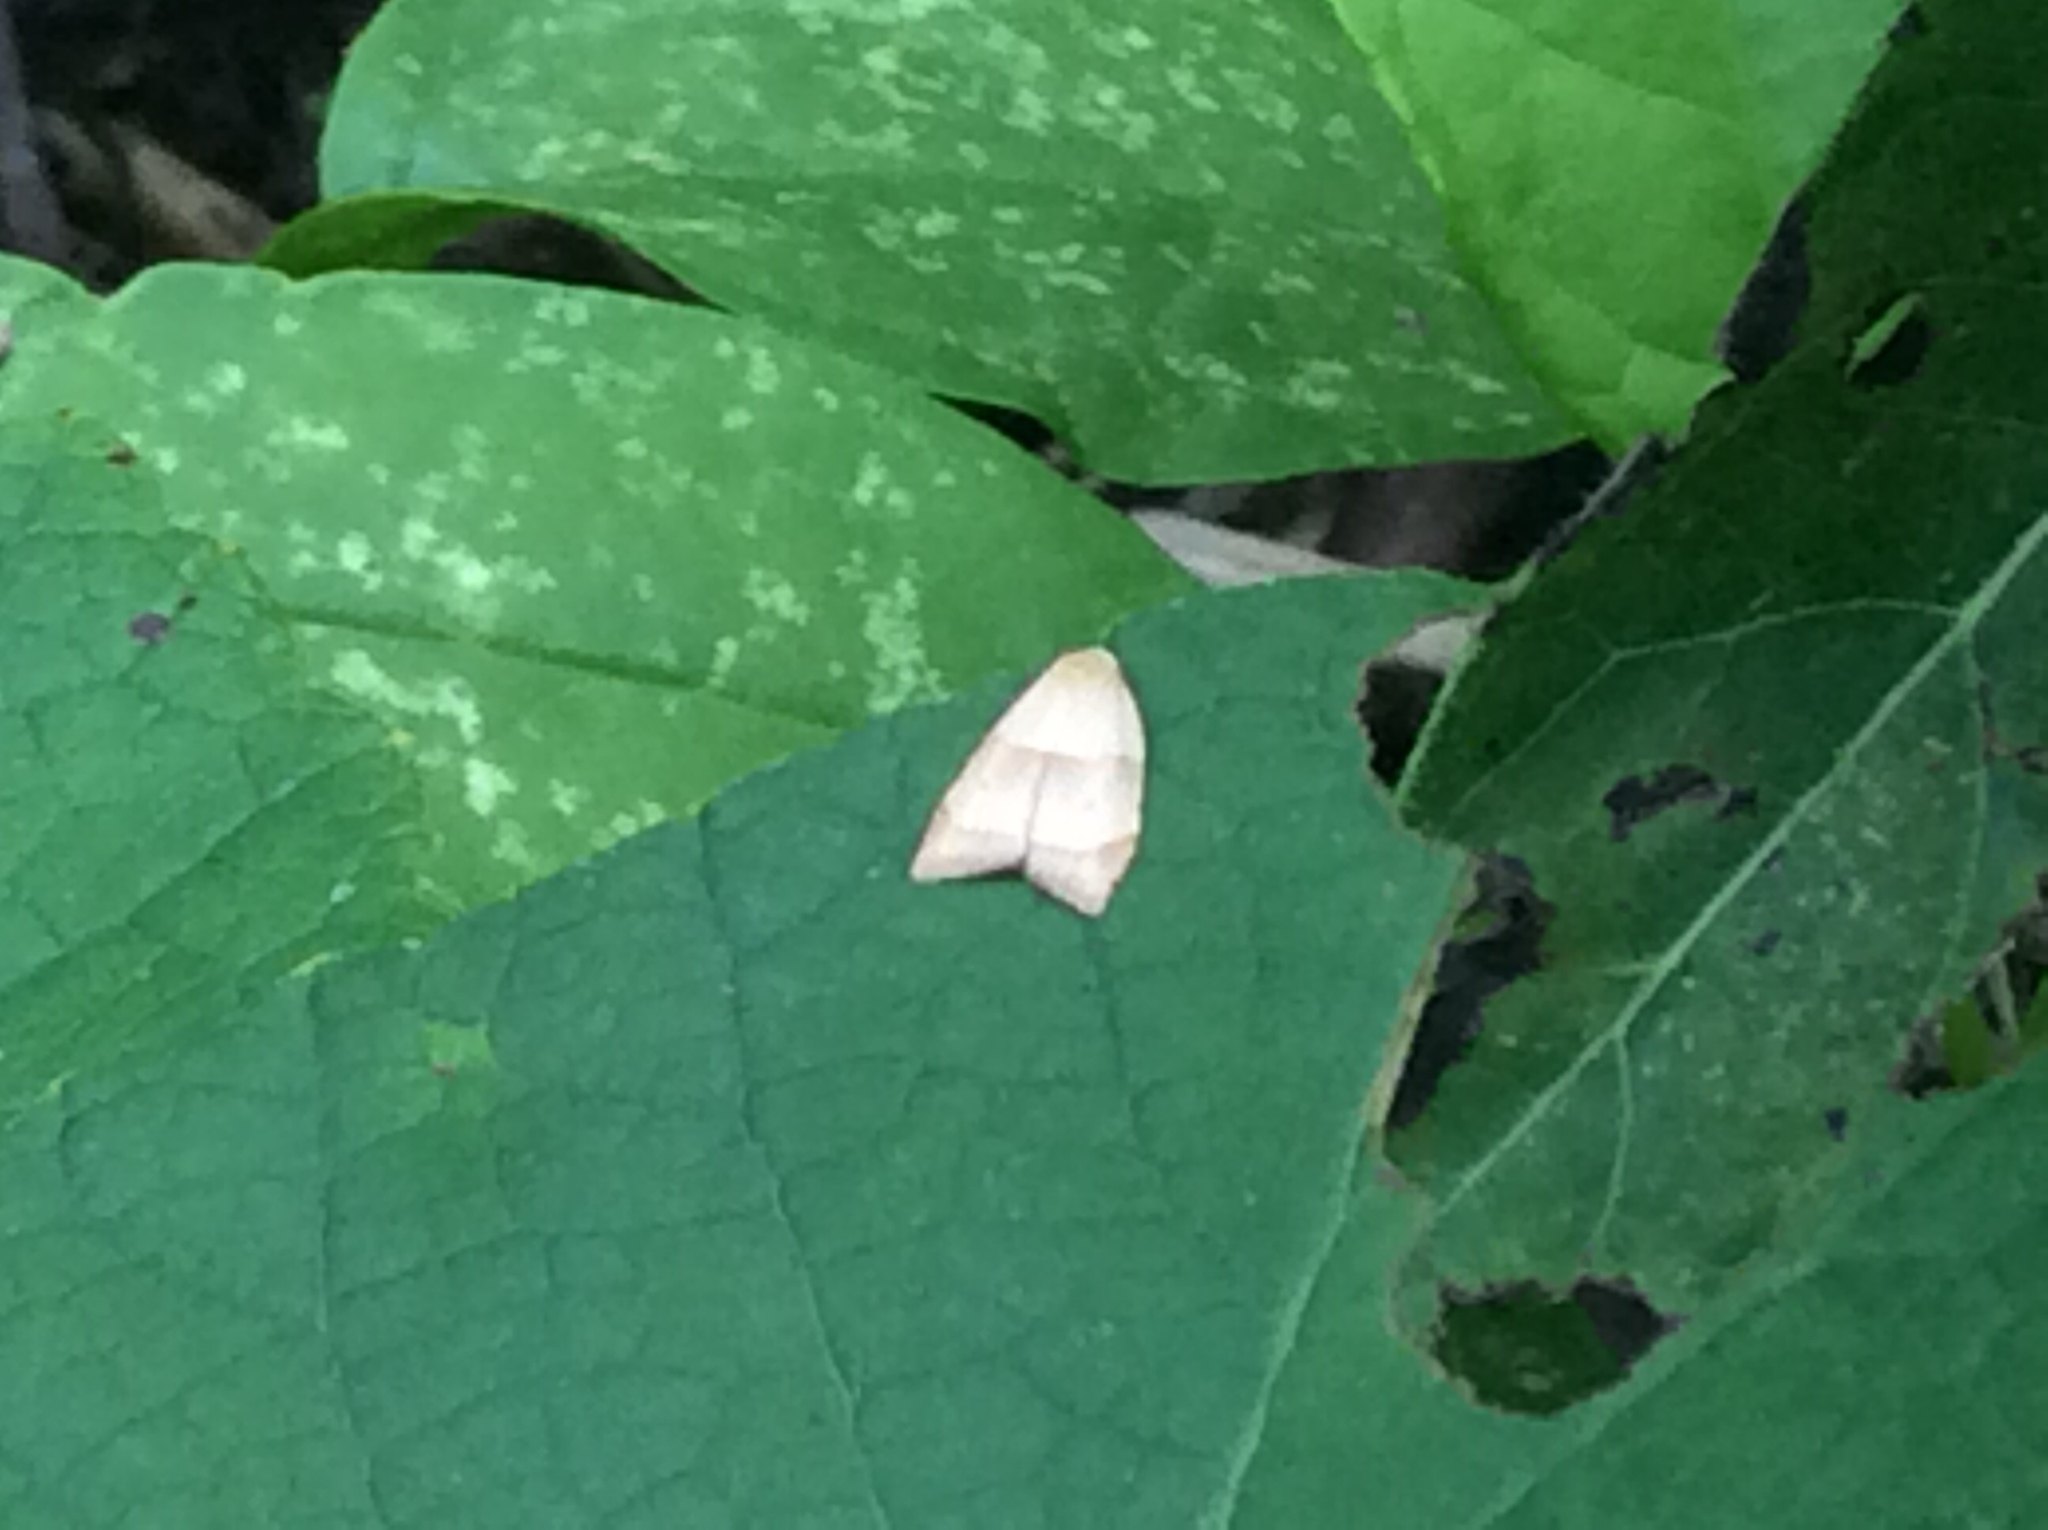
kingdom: Animalia
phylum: Arthropoda
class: Insecta
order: Lepidoptera
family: Tortricidae
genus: Coelostathma
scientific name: Coelostathma discopunctana
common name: Batman moth
